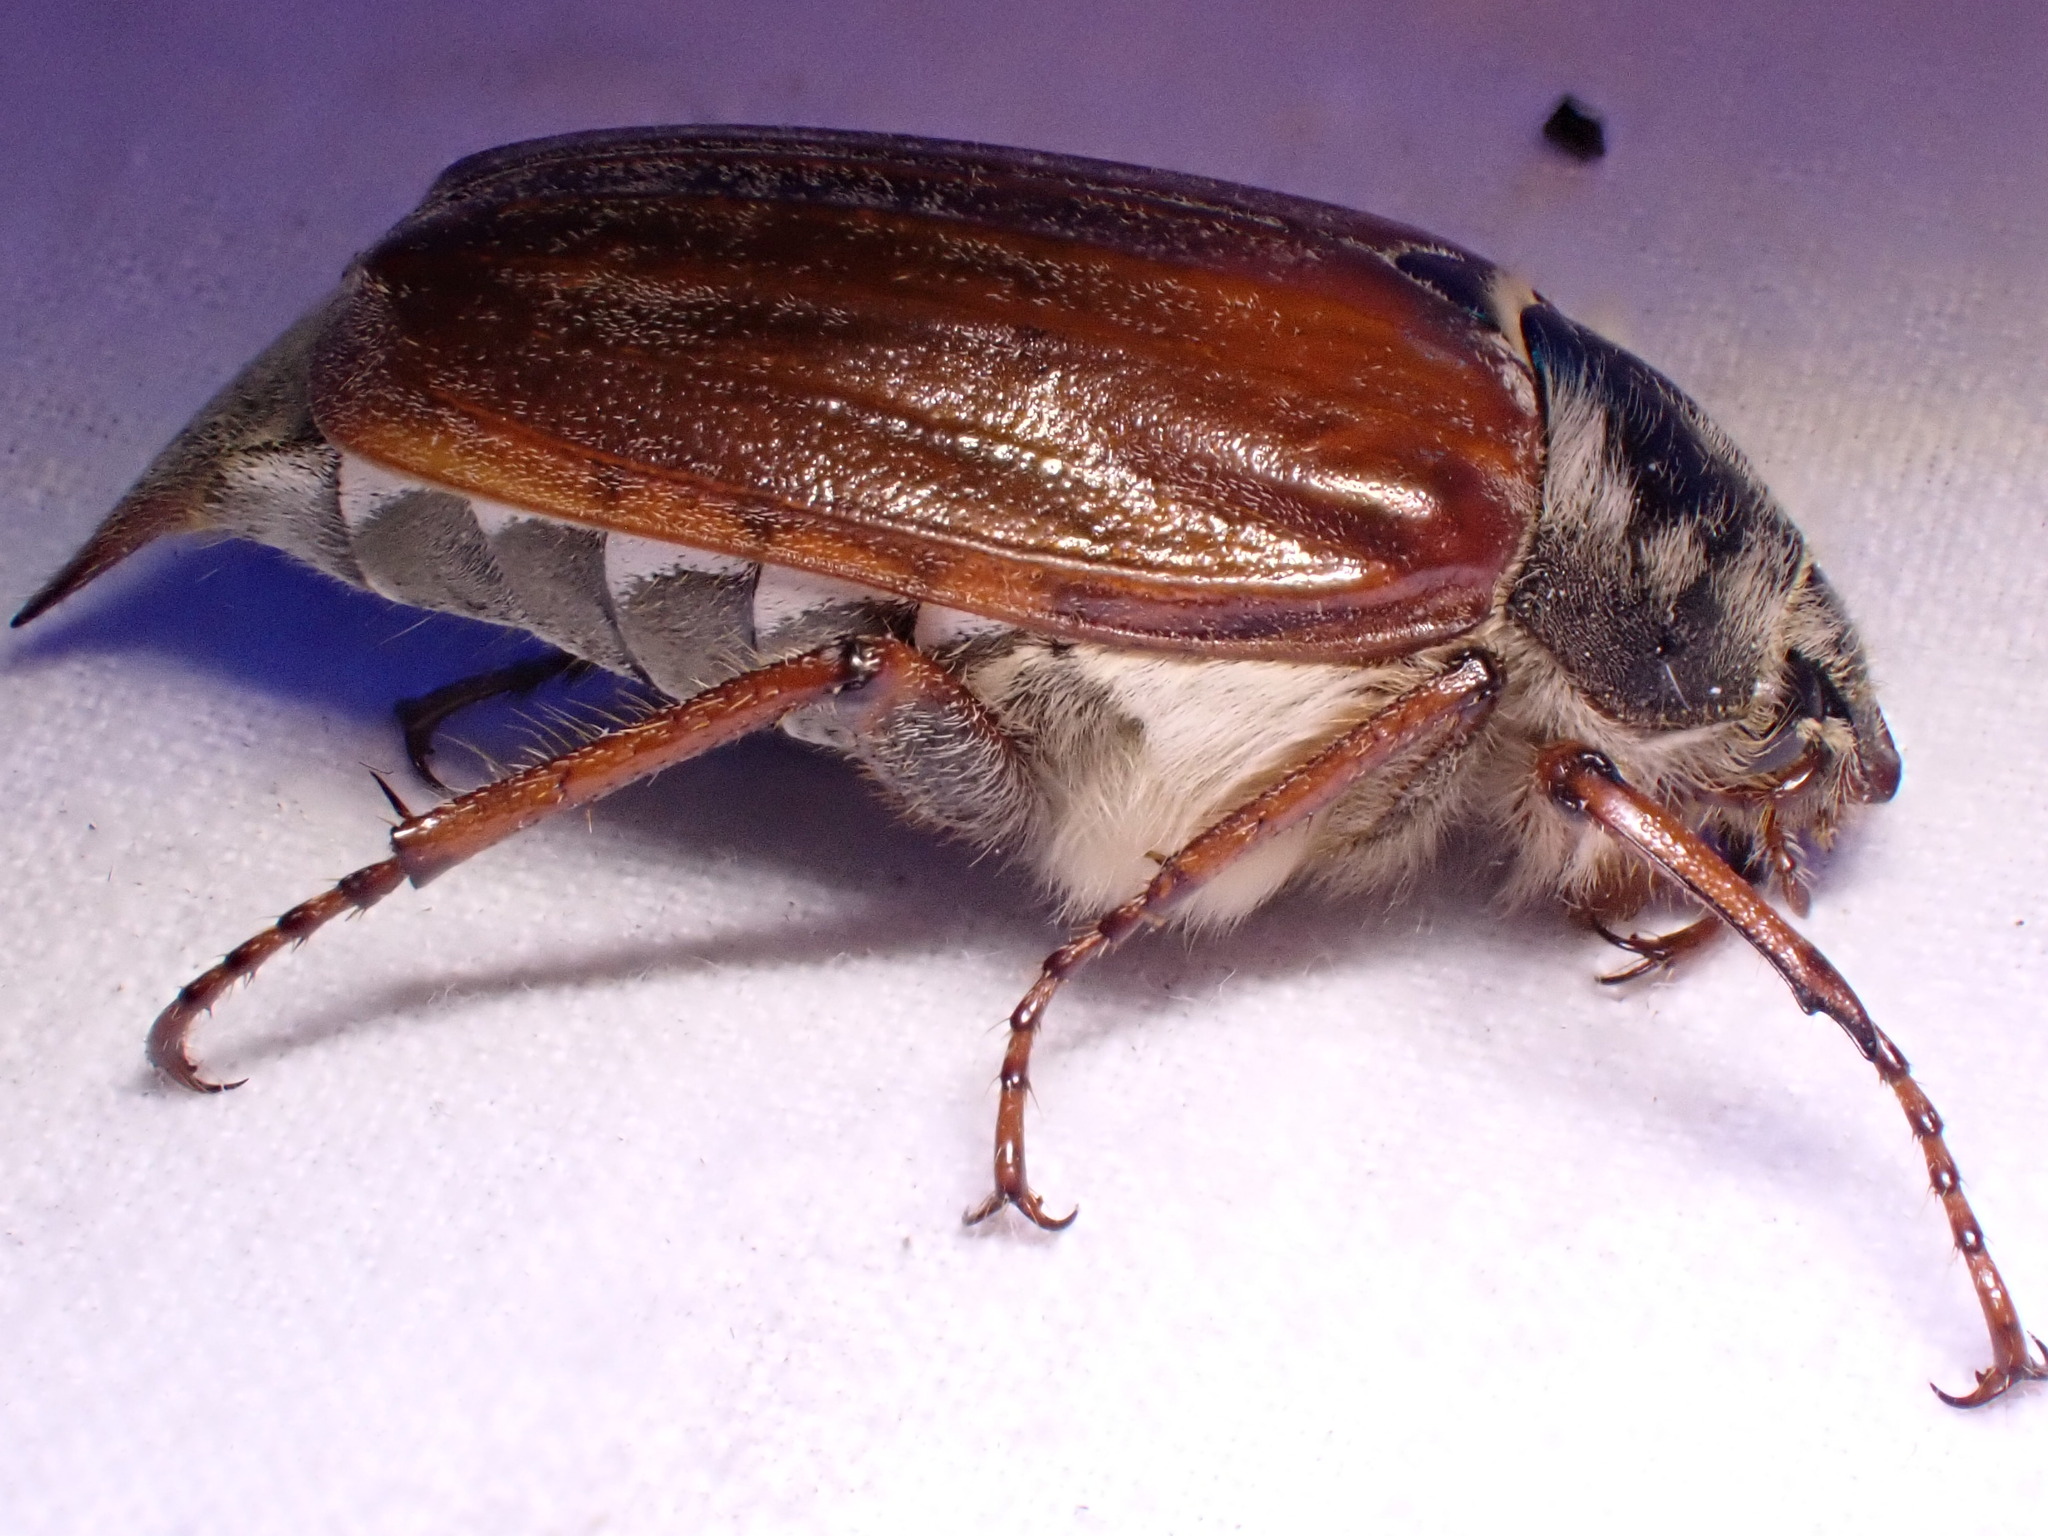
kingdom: Animalia
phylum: Arthropoda
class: Insecta
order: Coleoptera
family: Scarabaeidae
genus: Melolontha
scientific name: Melolontha melolontha
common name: Cockchafer maybeetle
